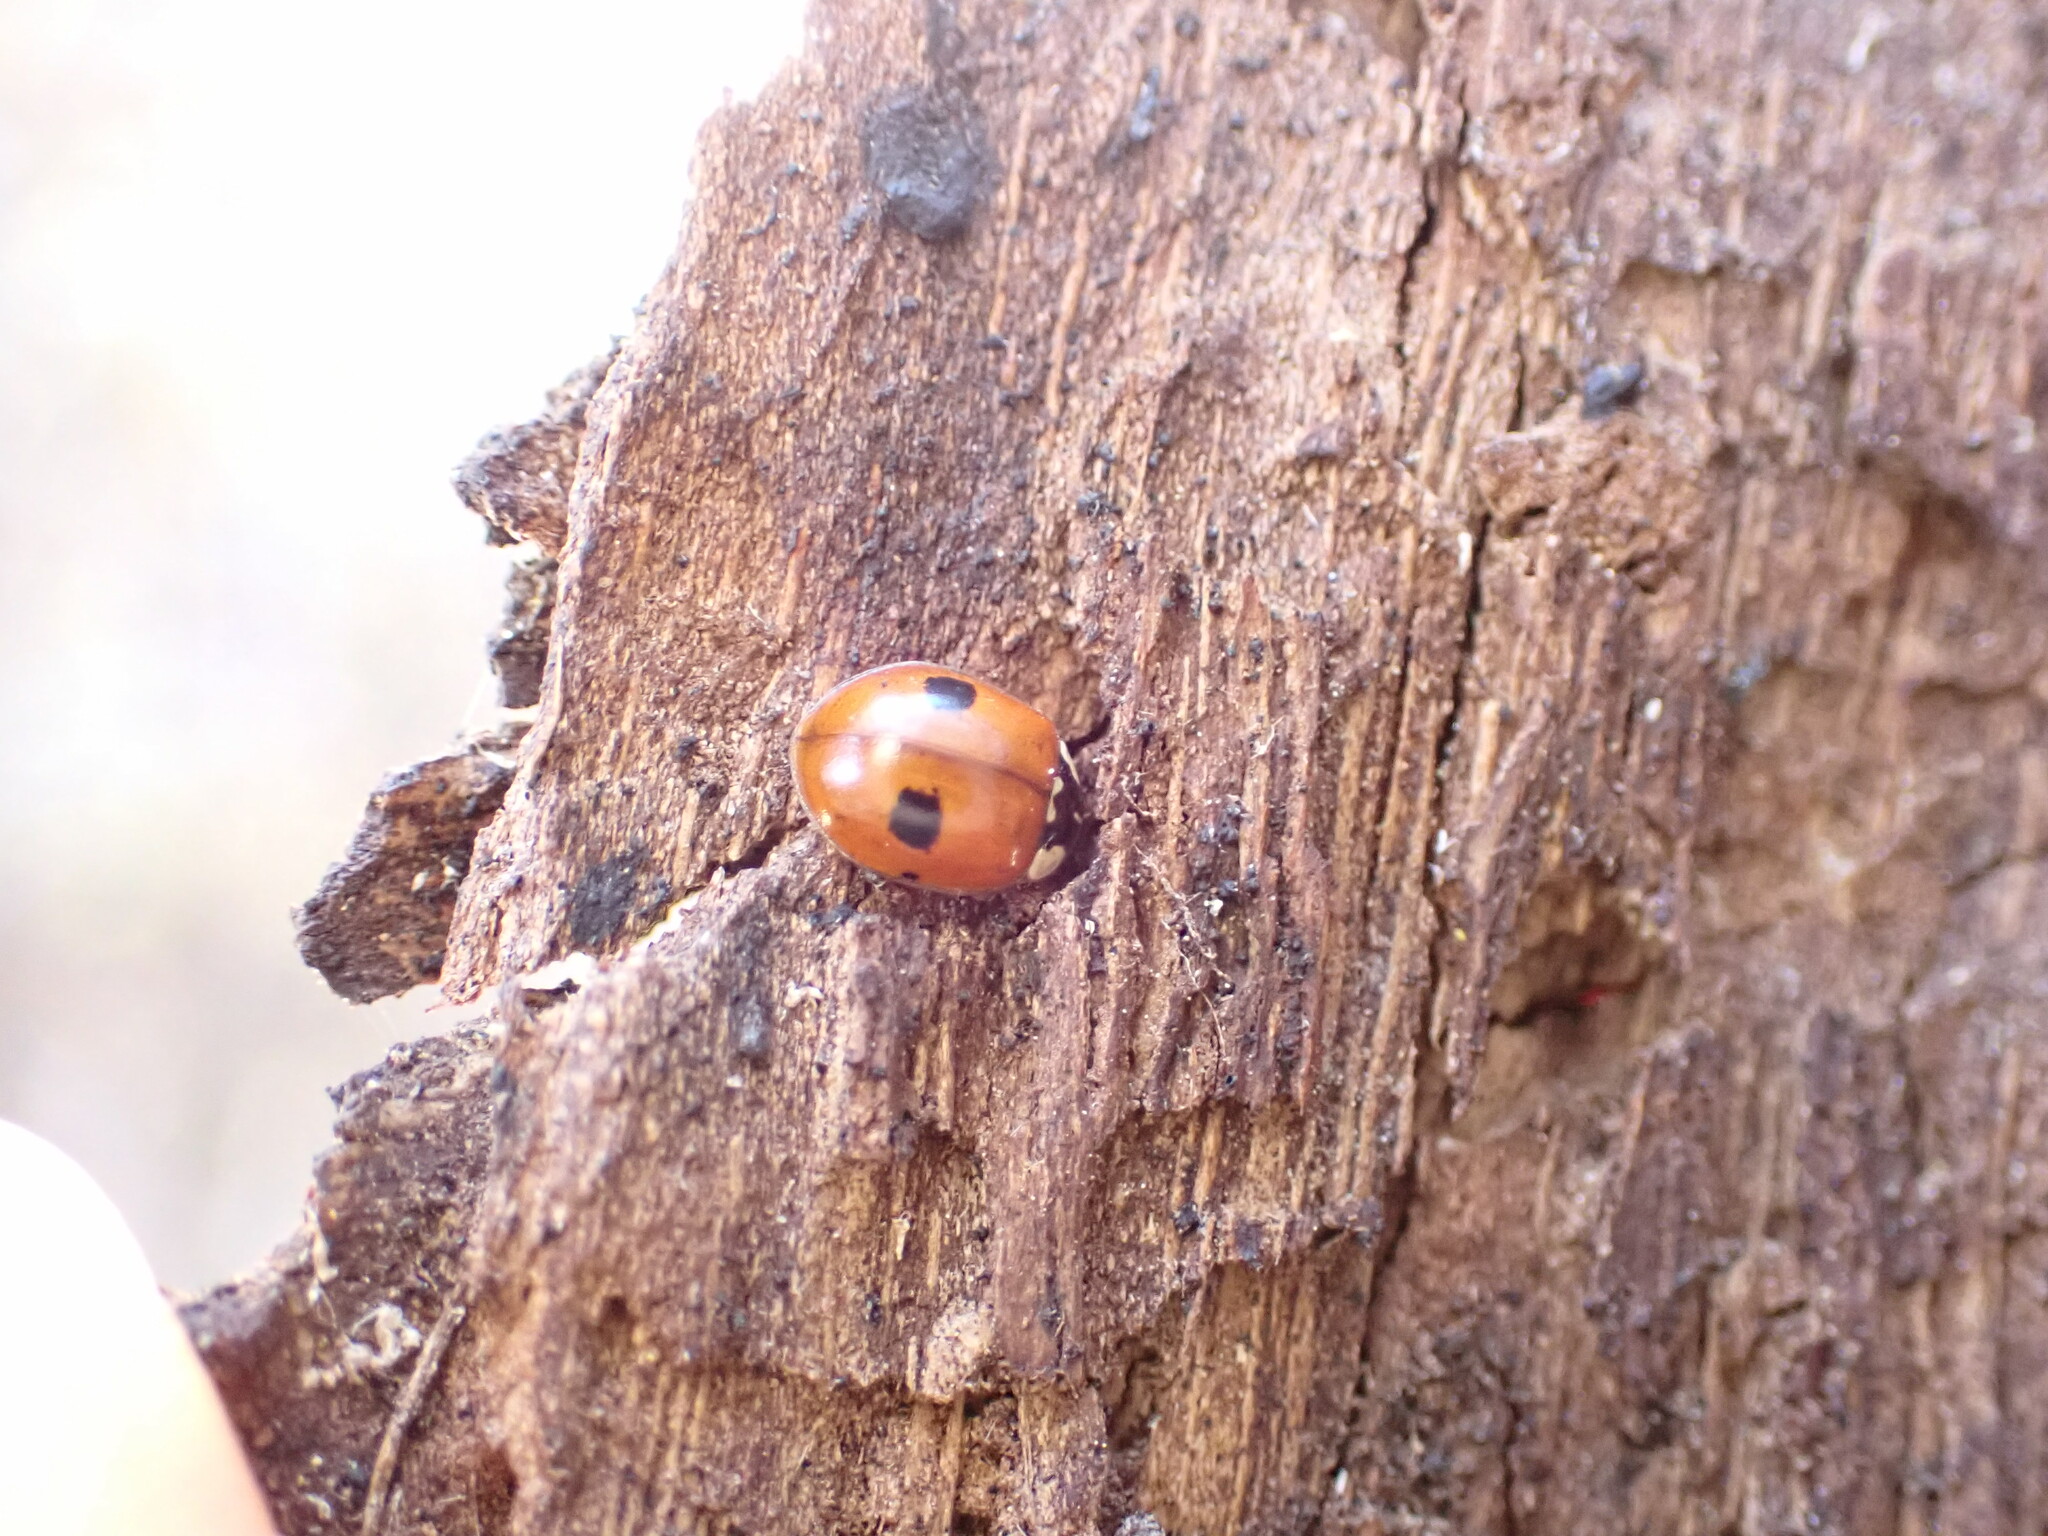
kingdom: Animalia
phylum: Arthropoda
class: Insecta
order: Coleoptera
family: Coccinellidae
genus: Adalia
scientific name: Adalia bipunctata
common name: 2-spot ladybird
